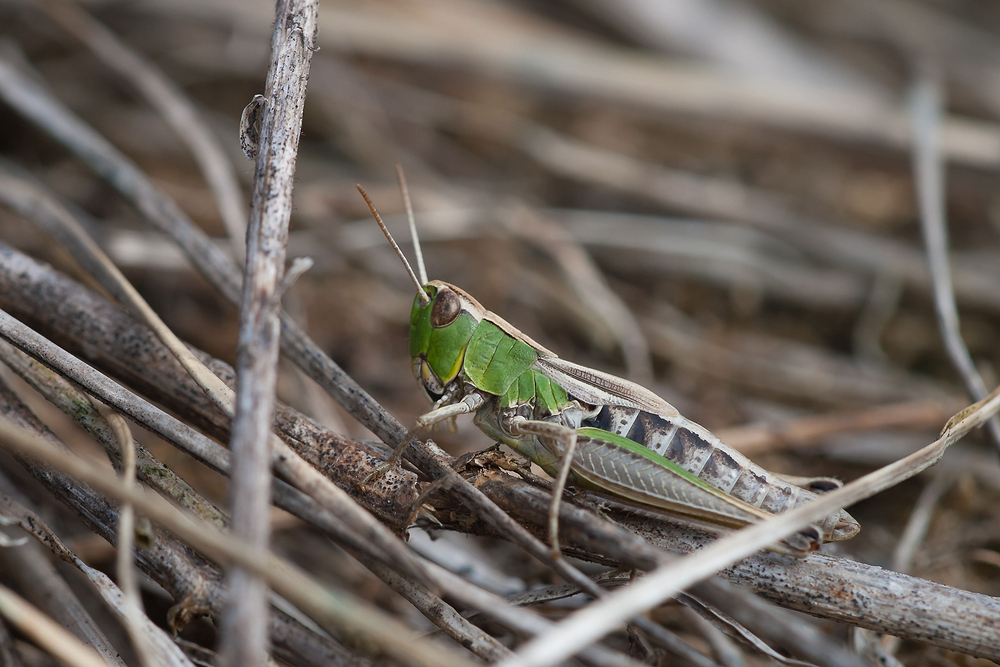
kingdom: Animalia
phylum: Arthropoda
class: Insecta
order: Orthoptera
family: Acrididae
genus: Pseudochorthippus
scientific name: Pseudochorthippus parallelus
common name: Meadow grasshopper
